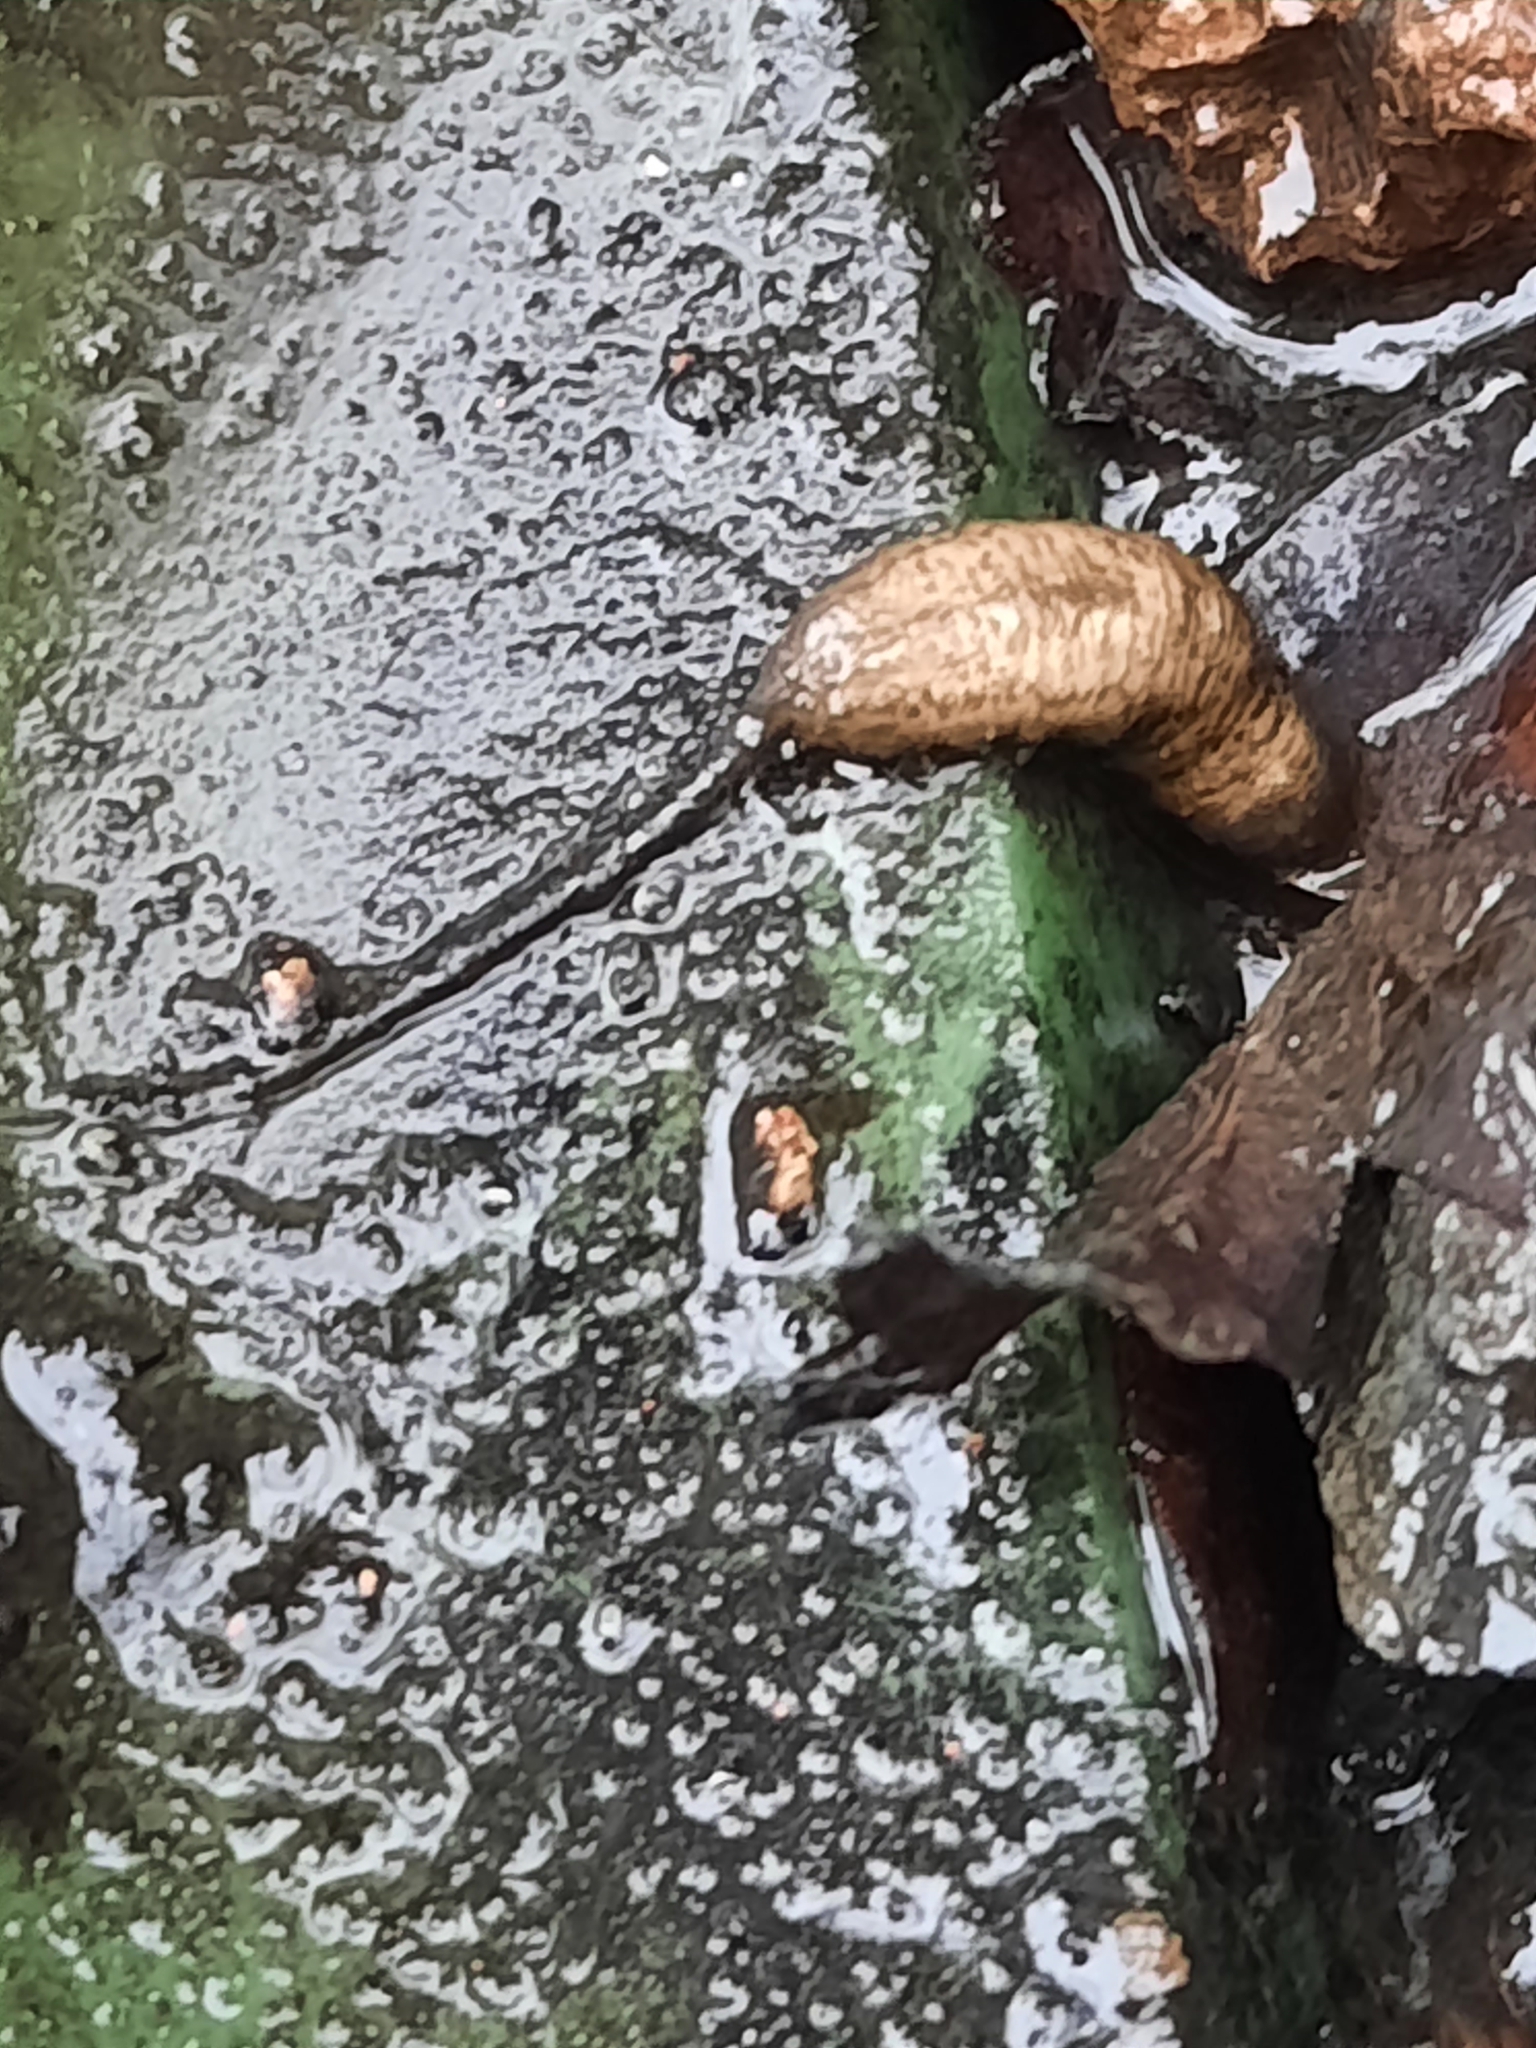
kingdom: Animalia
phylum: Arthropoda
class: Insecta
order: Diptera
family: Syrphidae
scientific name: Syrphidae
